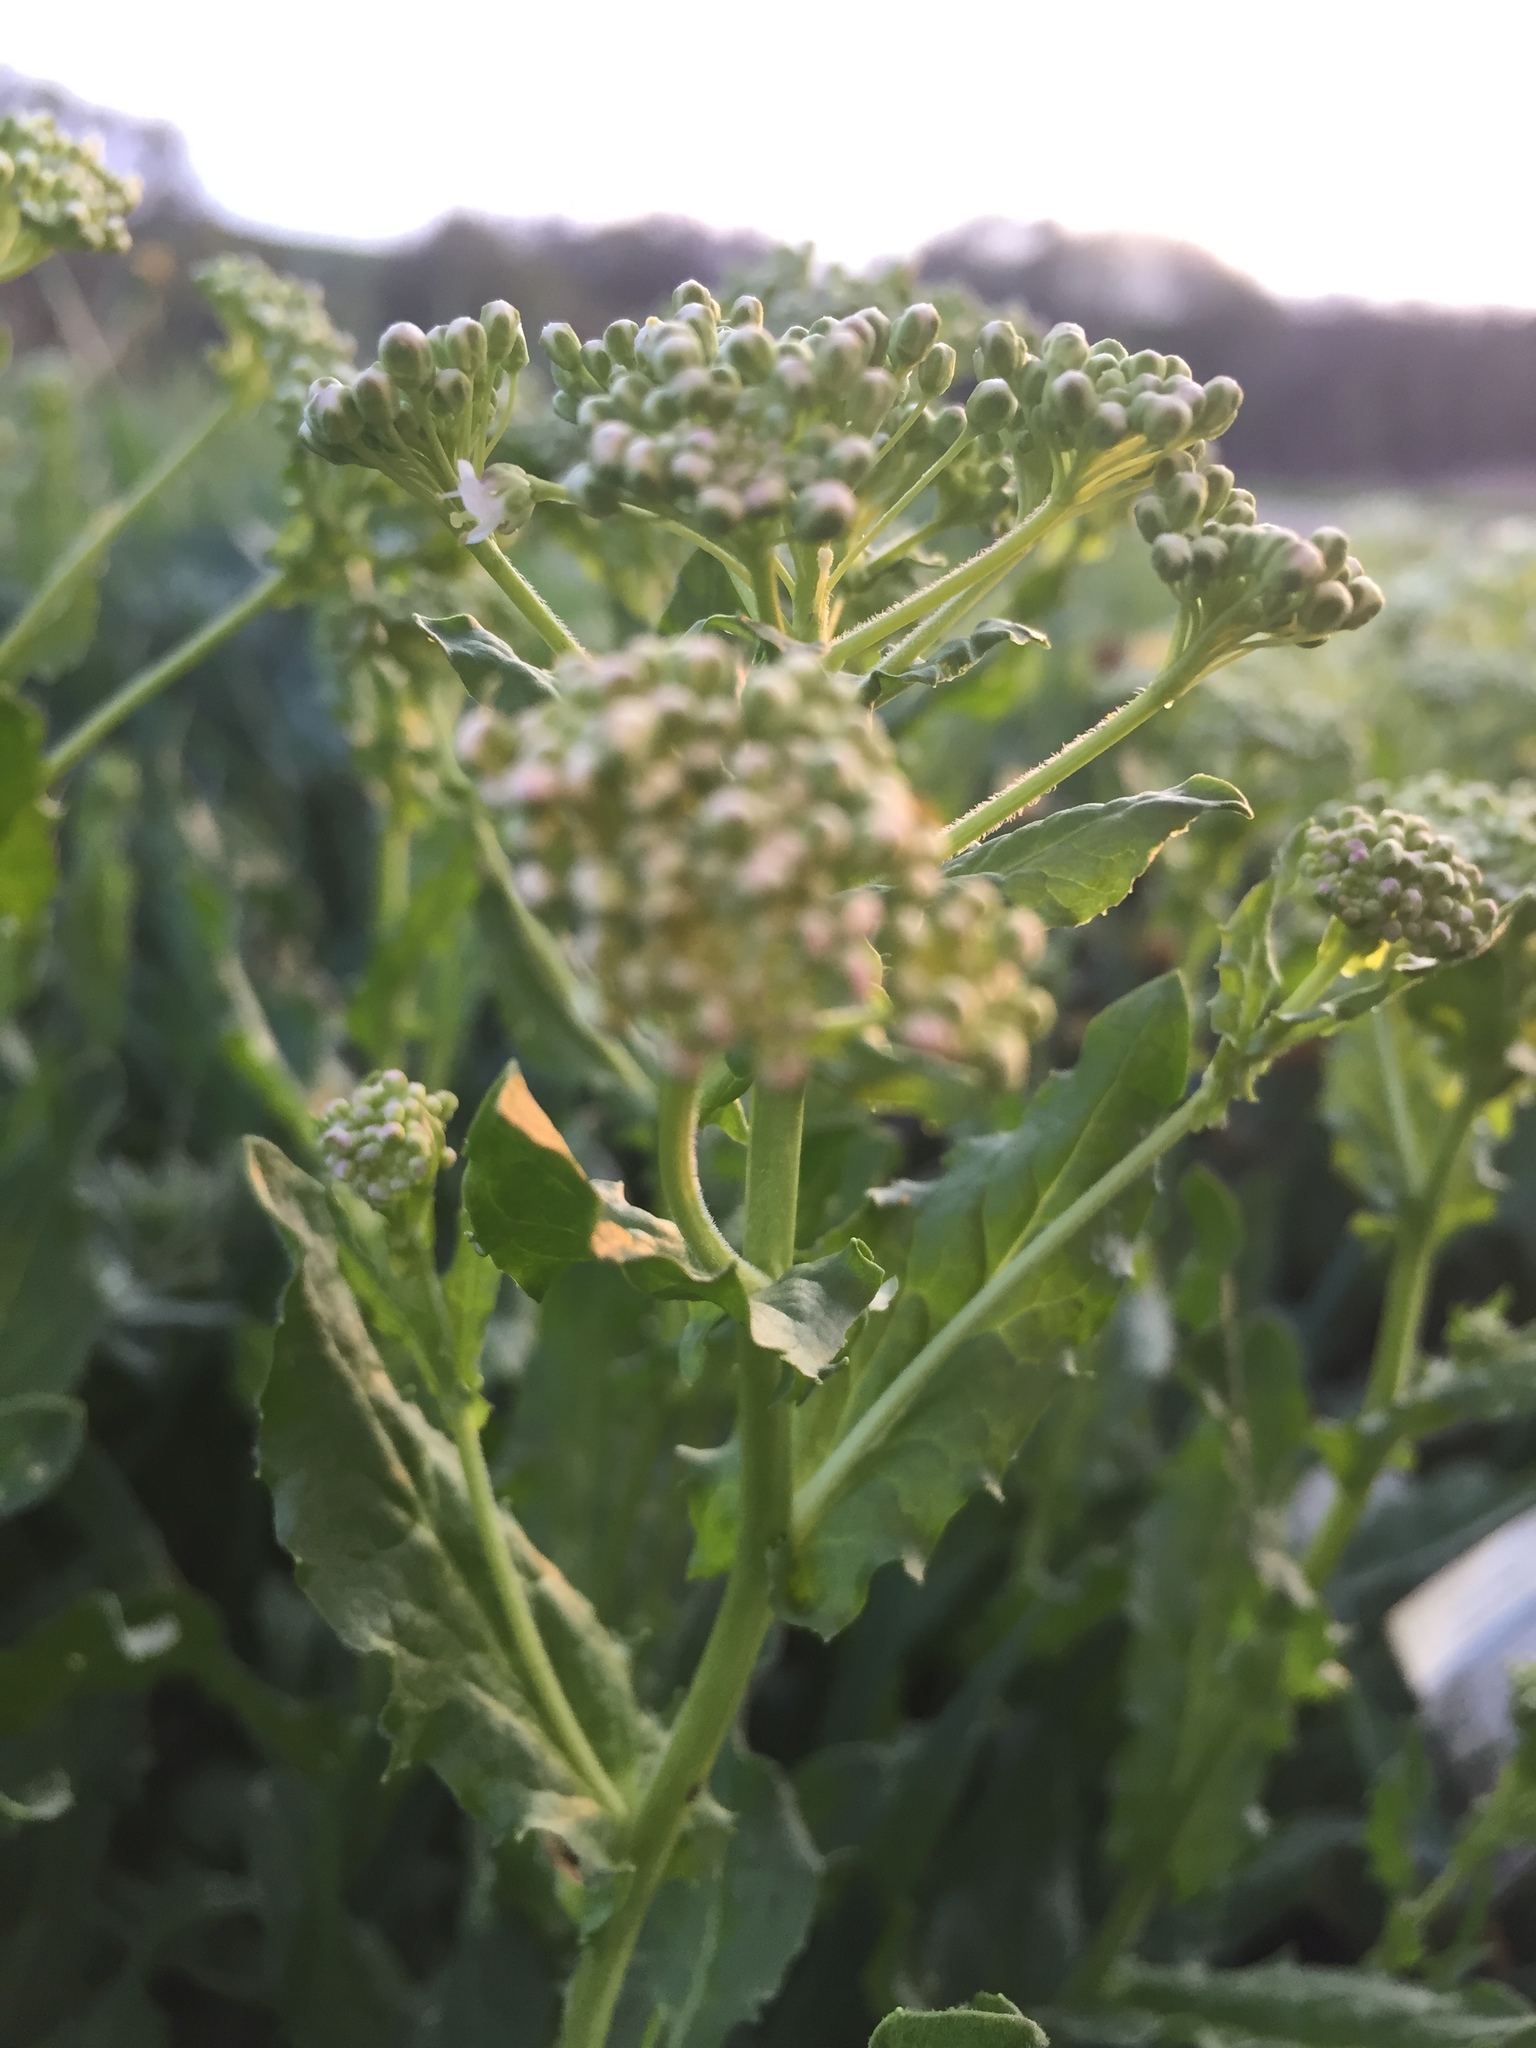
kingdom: Plantae
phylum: Tracheophyta
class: Magnoliopsida
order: Brassicales
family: Brassicaceae
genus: Lepidium
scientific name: Lepidium draba
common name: Hoary cress
